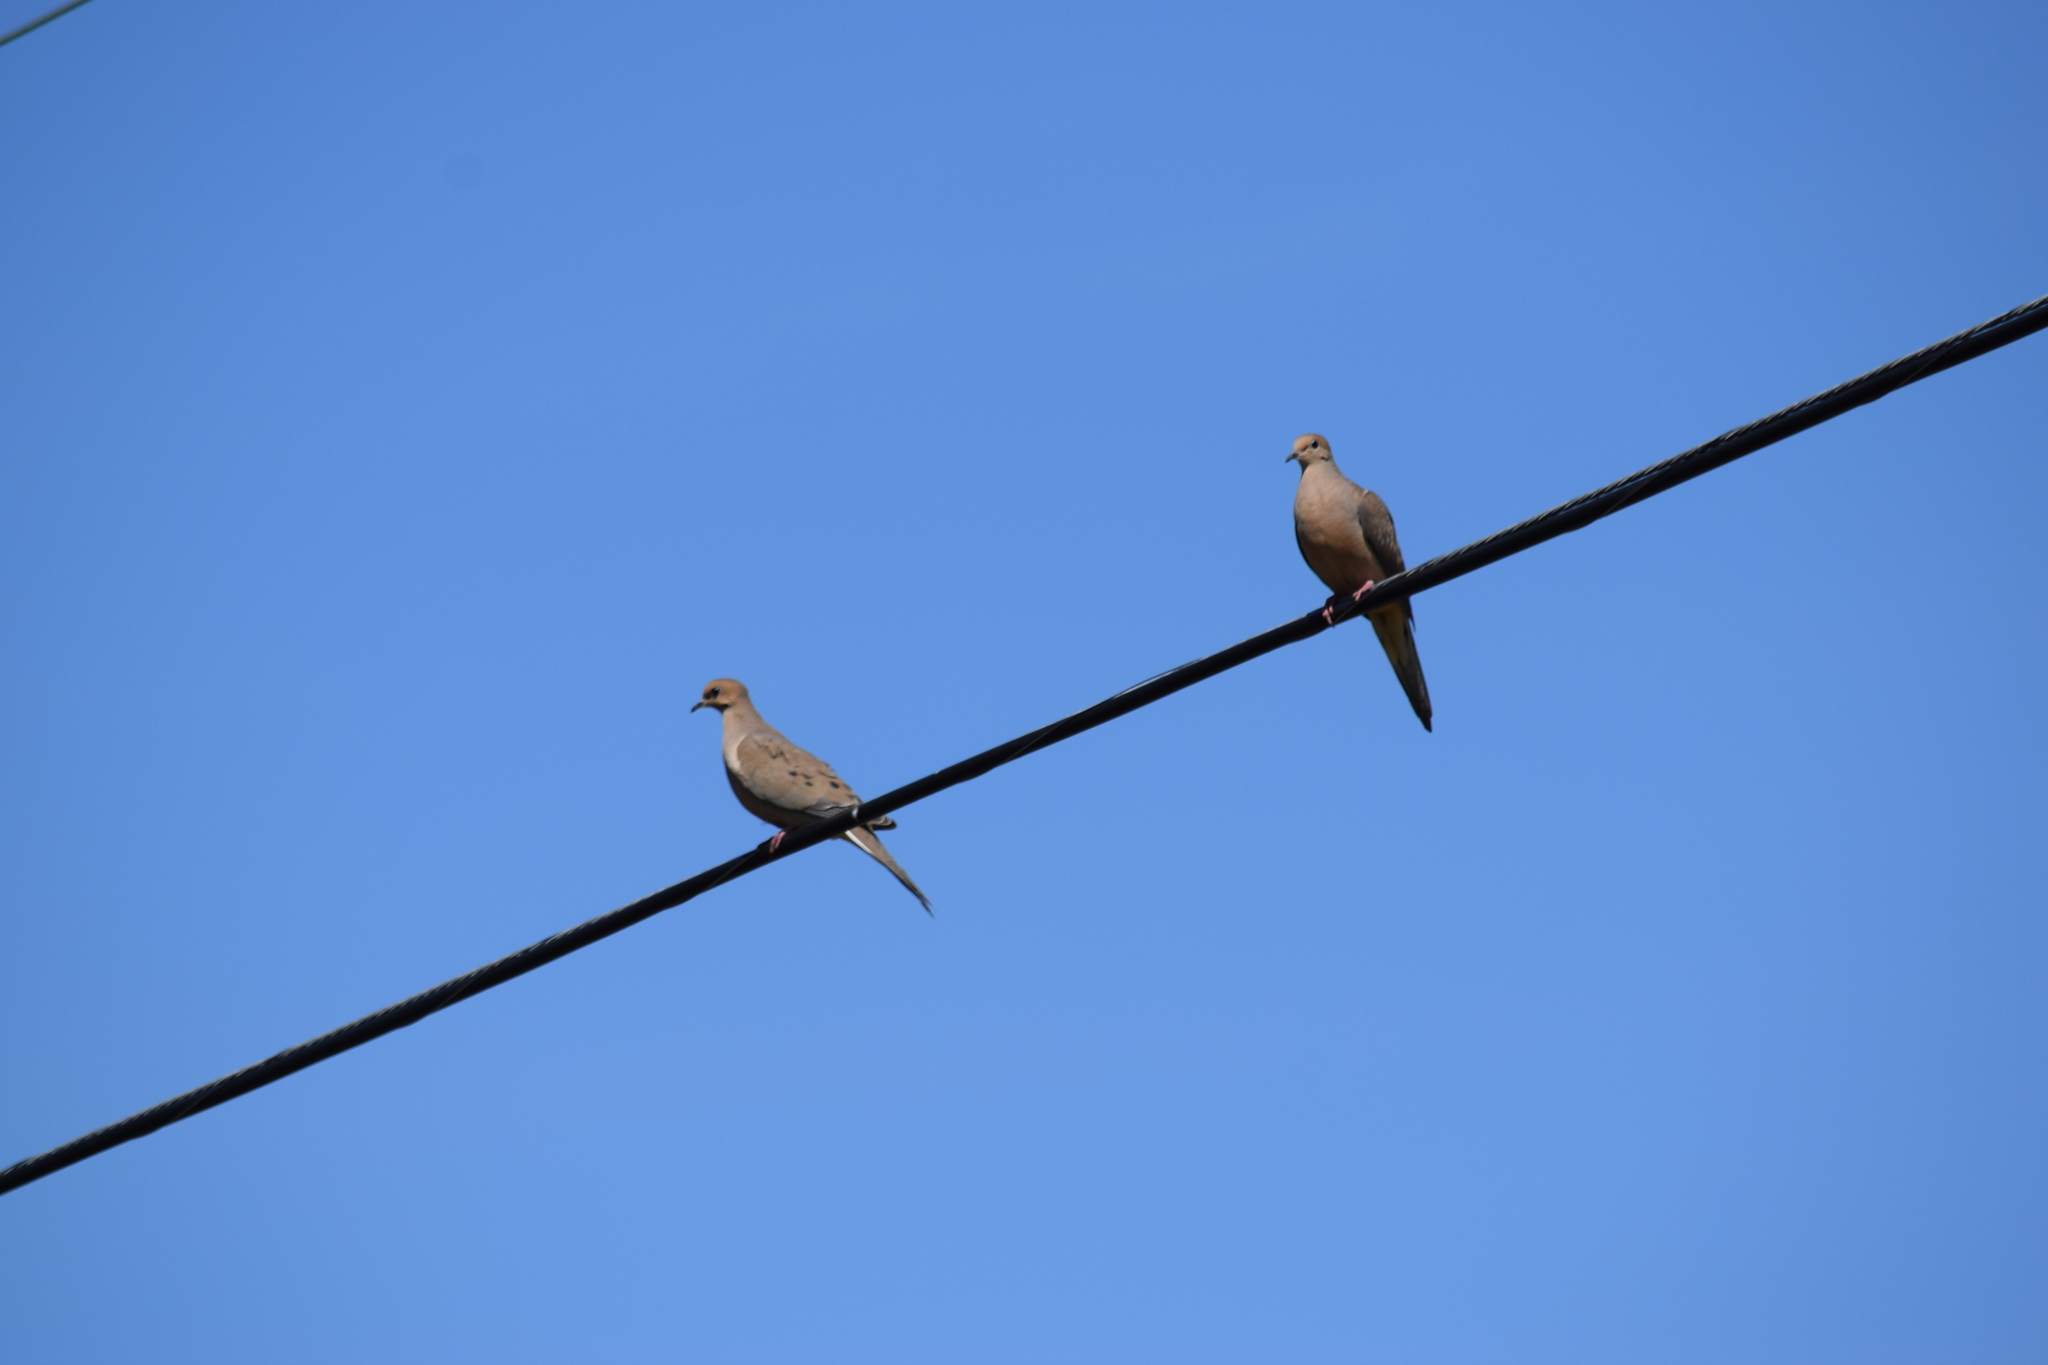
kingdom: Animalia
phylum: Chordata
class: Aves
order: Columbiformes
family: Columbidae
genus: Zenaida
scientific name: Zenaida macroura
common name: Mourning dove
